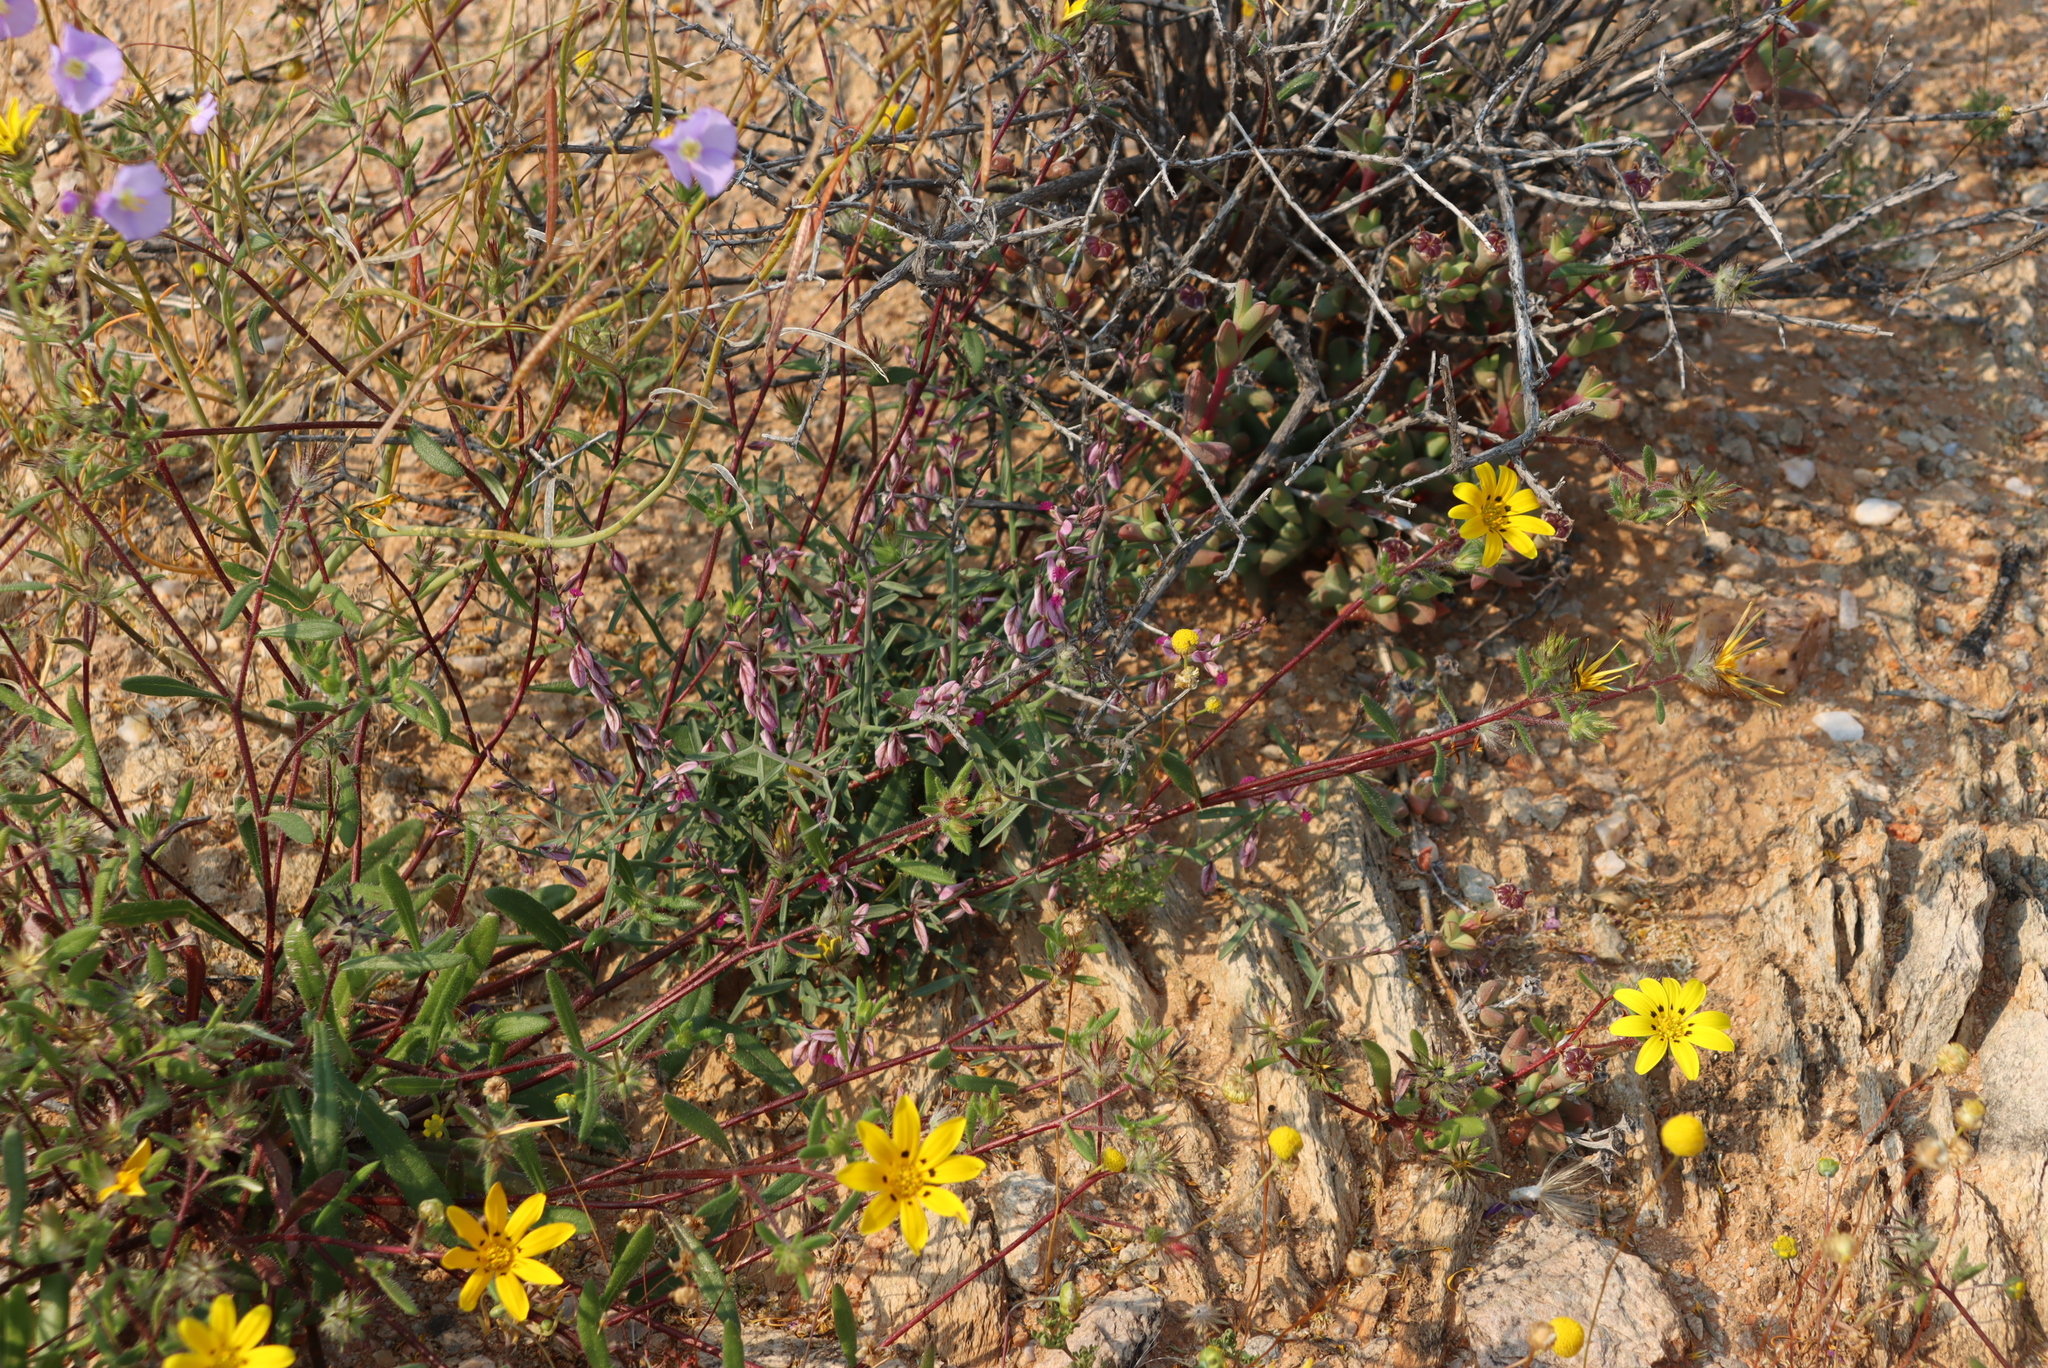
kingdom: Plantae
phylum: Tracheophyta
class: Magnoliopsida
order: Brassicales
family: Brassicaceae
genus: Heliophila
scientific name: Heliophila trifurca
